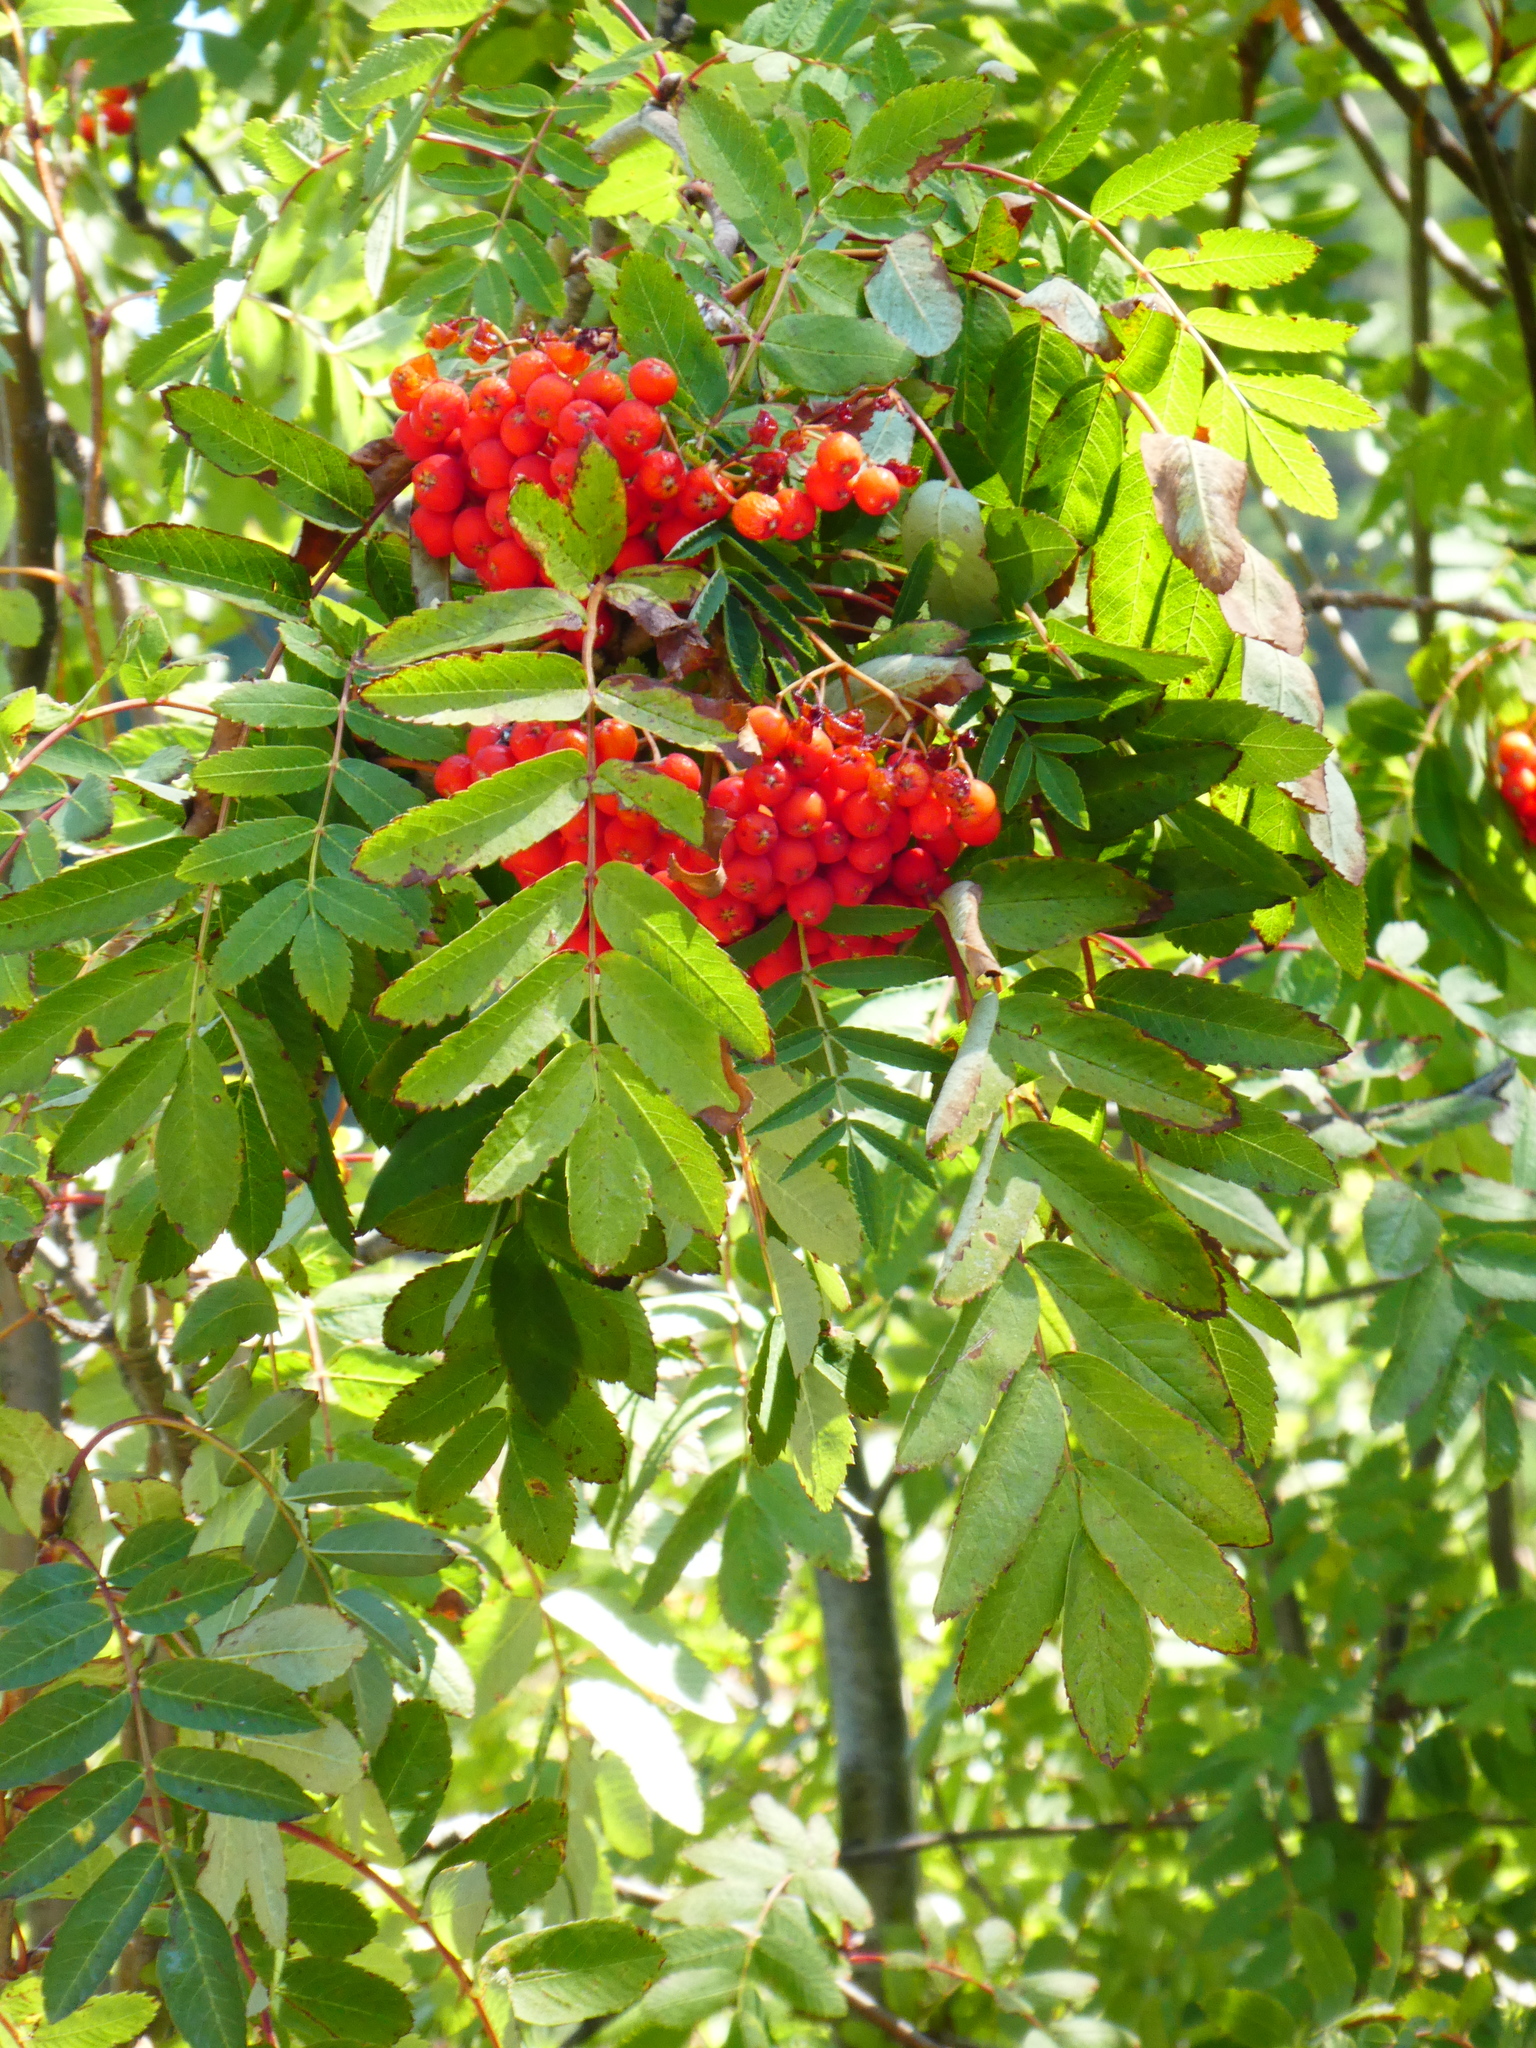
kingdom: Plantae
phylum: Tracheophyta
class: Magnoliopsida
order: Rosales
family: Rosaceae
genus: Sorbus
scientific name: Sorbus aucuparia
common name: Rowan
